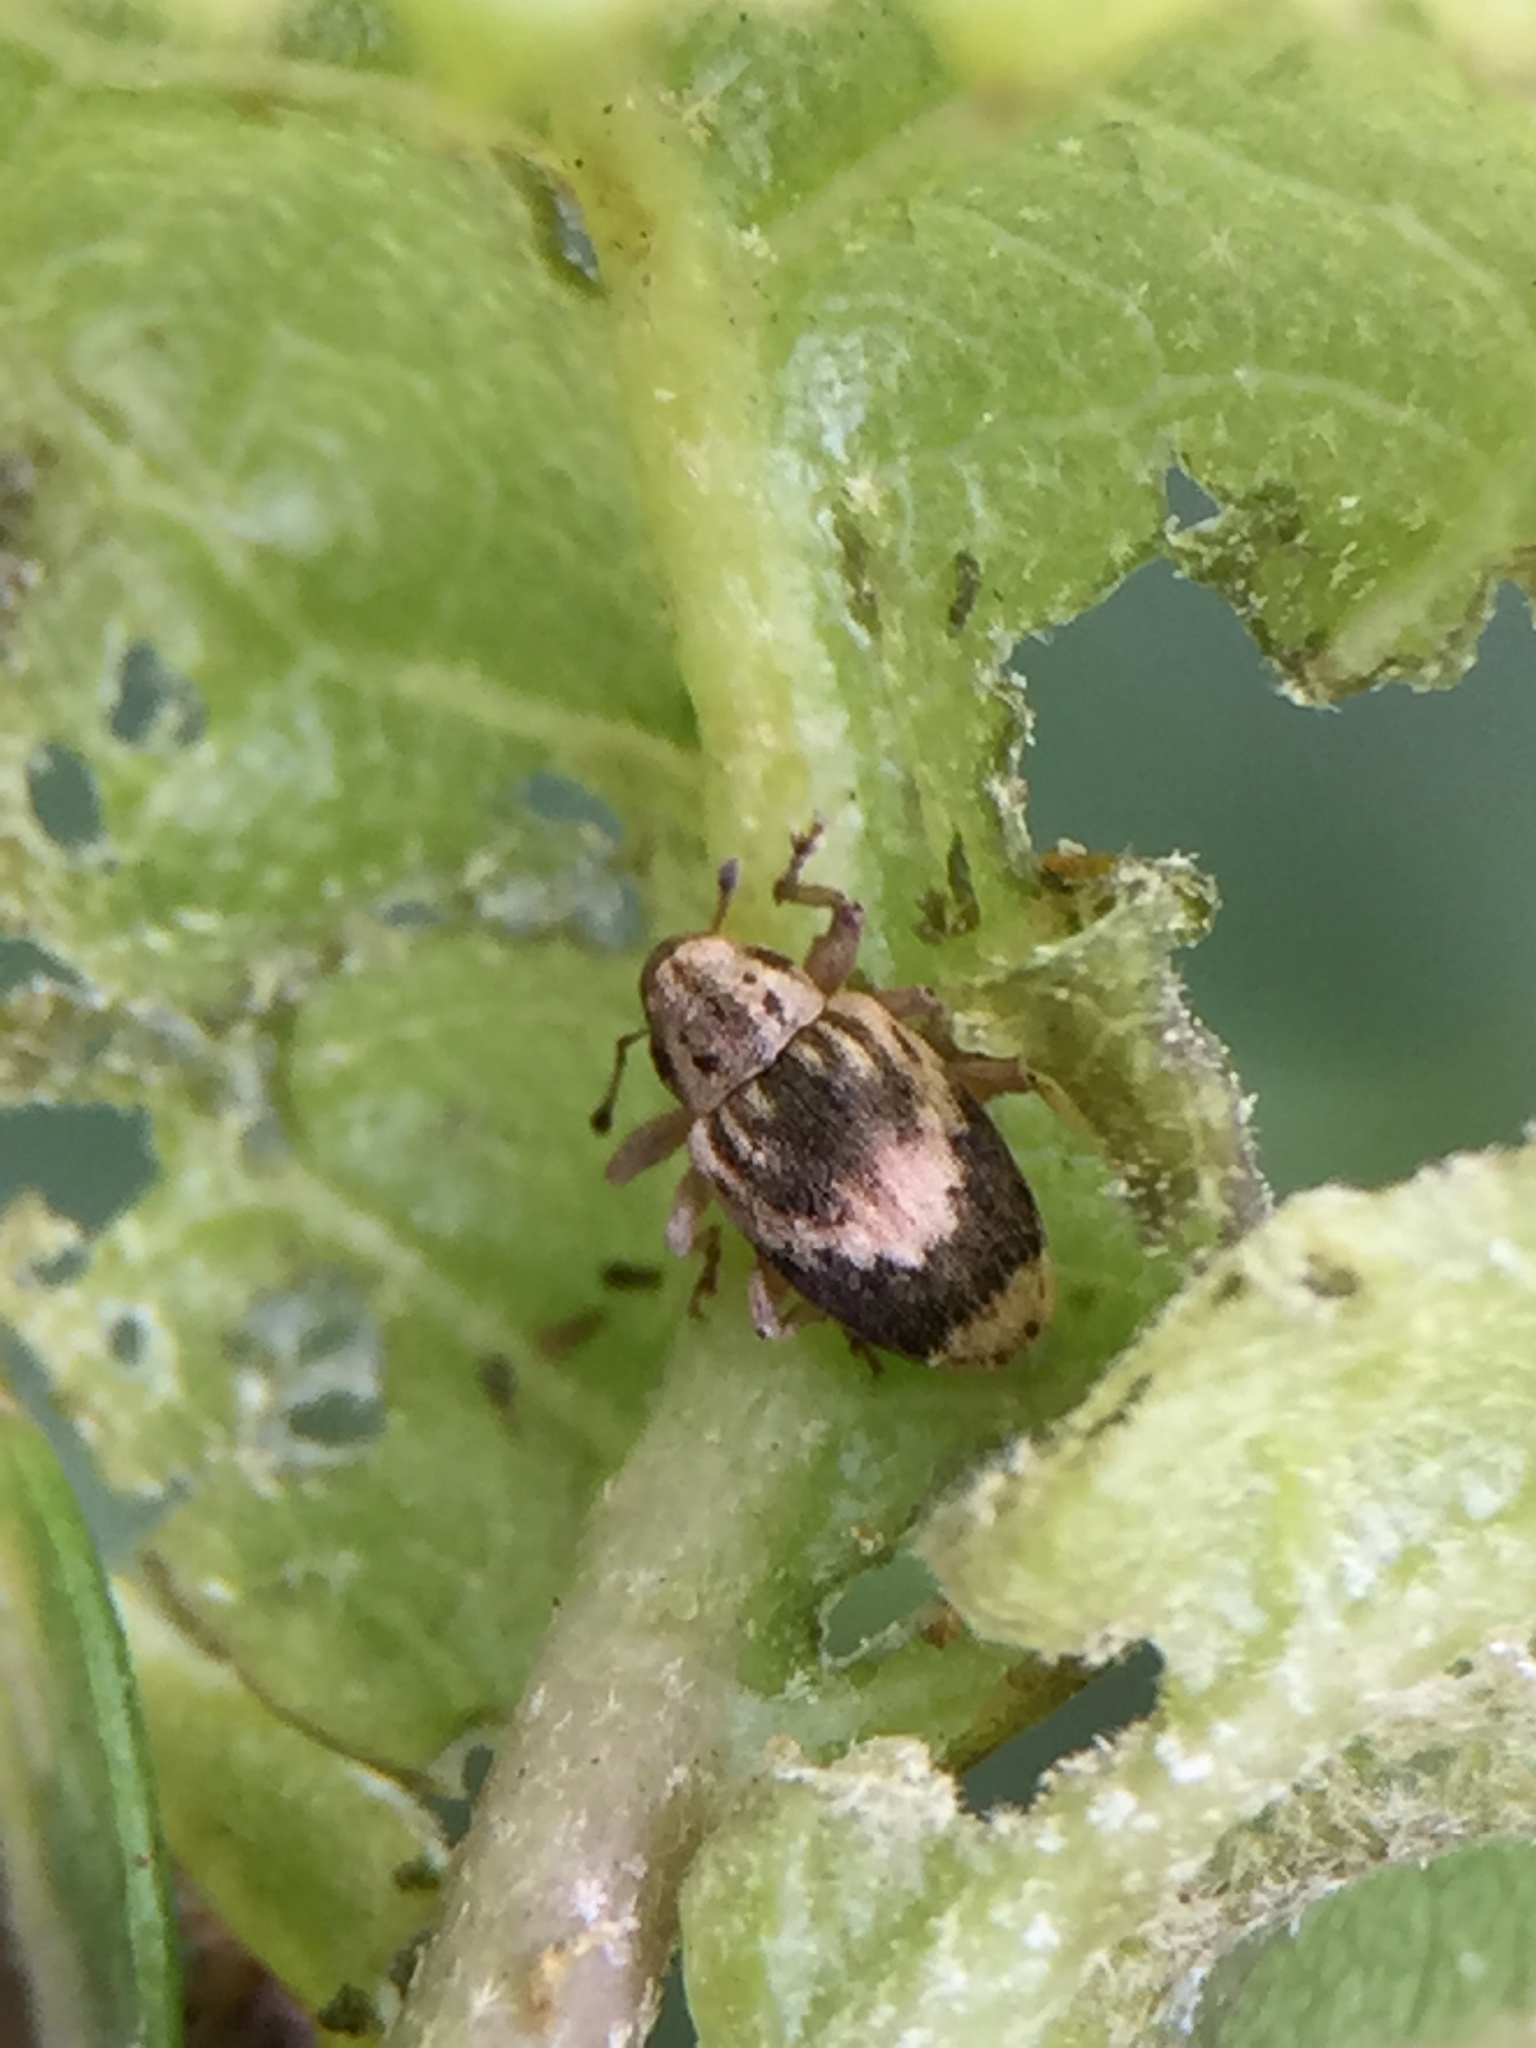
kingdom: Animalia
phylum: Arthropoda
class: Insecta
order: Coleoptera
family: Curculionidae
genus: Aneuma
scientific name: Aneuma compta
